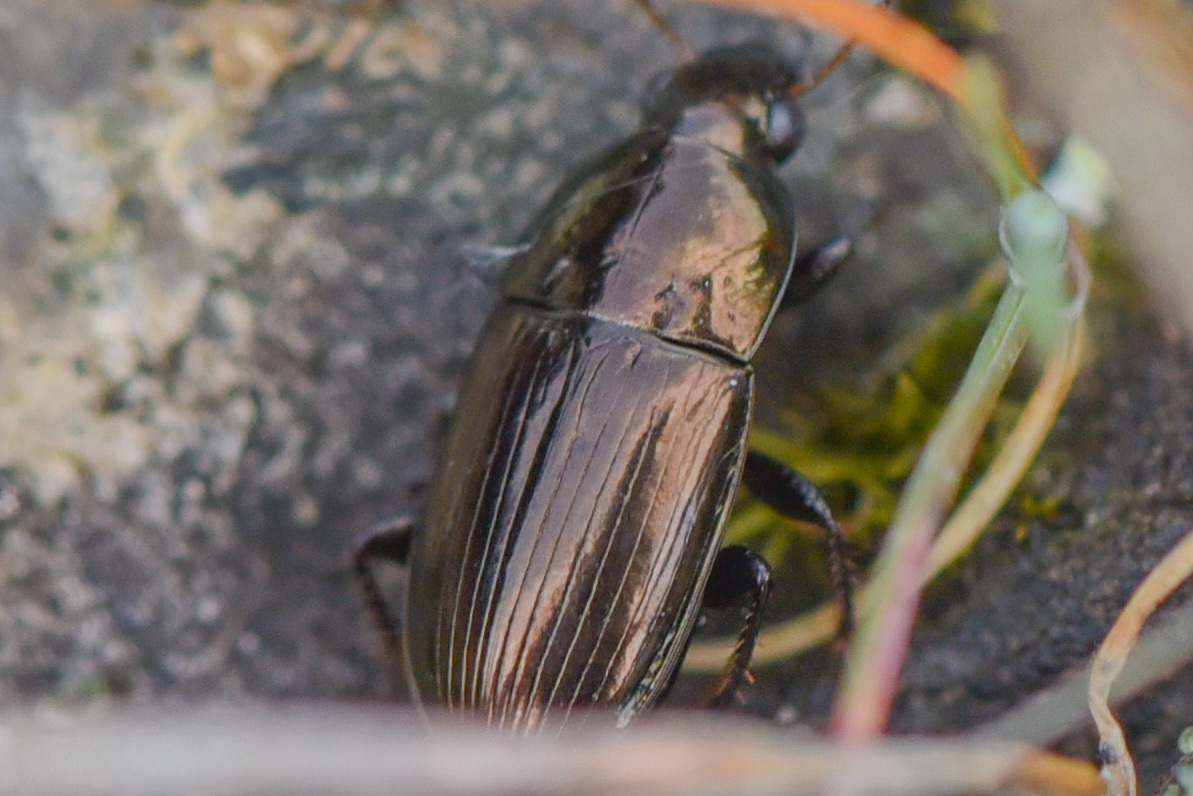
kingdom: Animalia
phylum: Arthropoda
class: Insecta
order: Coleoptera
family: Carabidae
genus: Amara
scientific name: Amara aenea
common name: Common sun beetle
